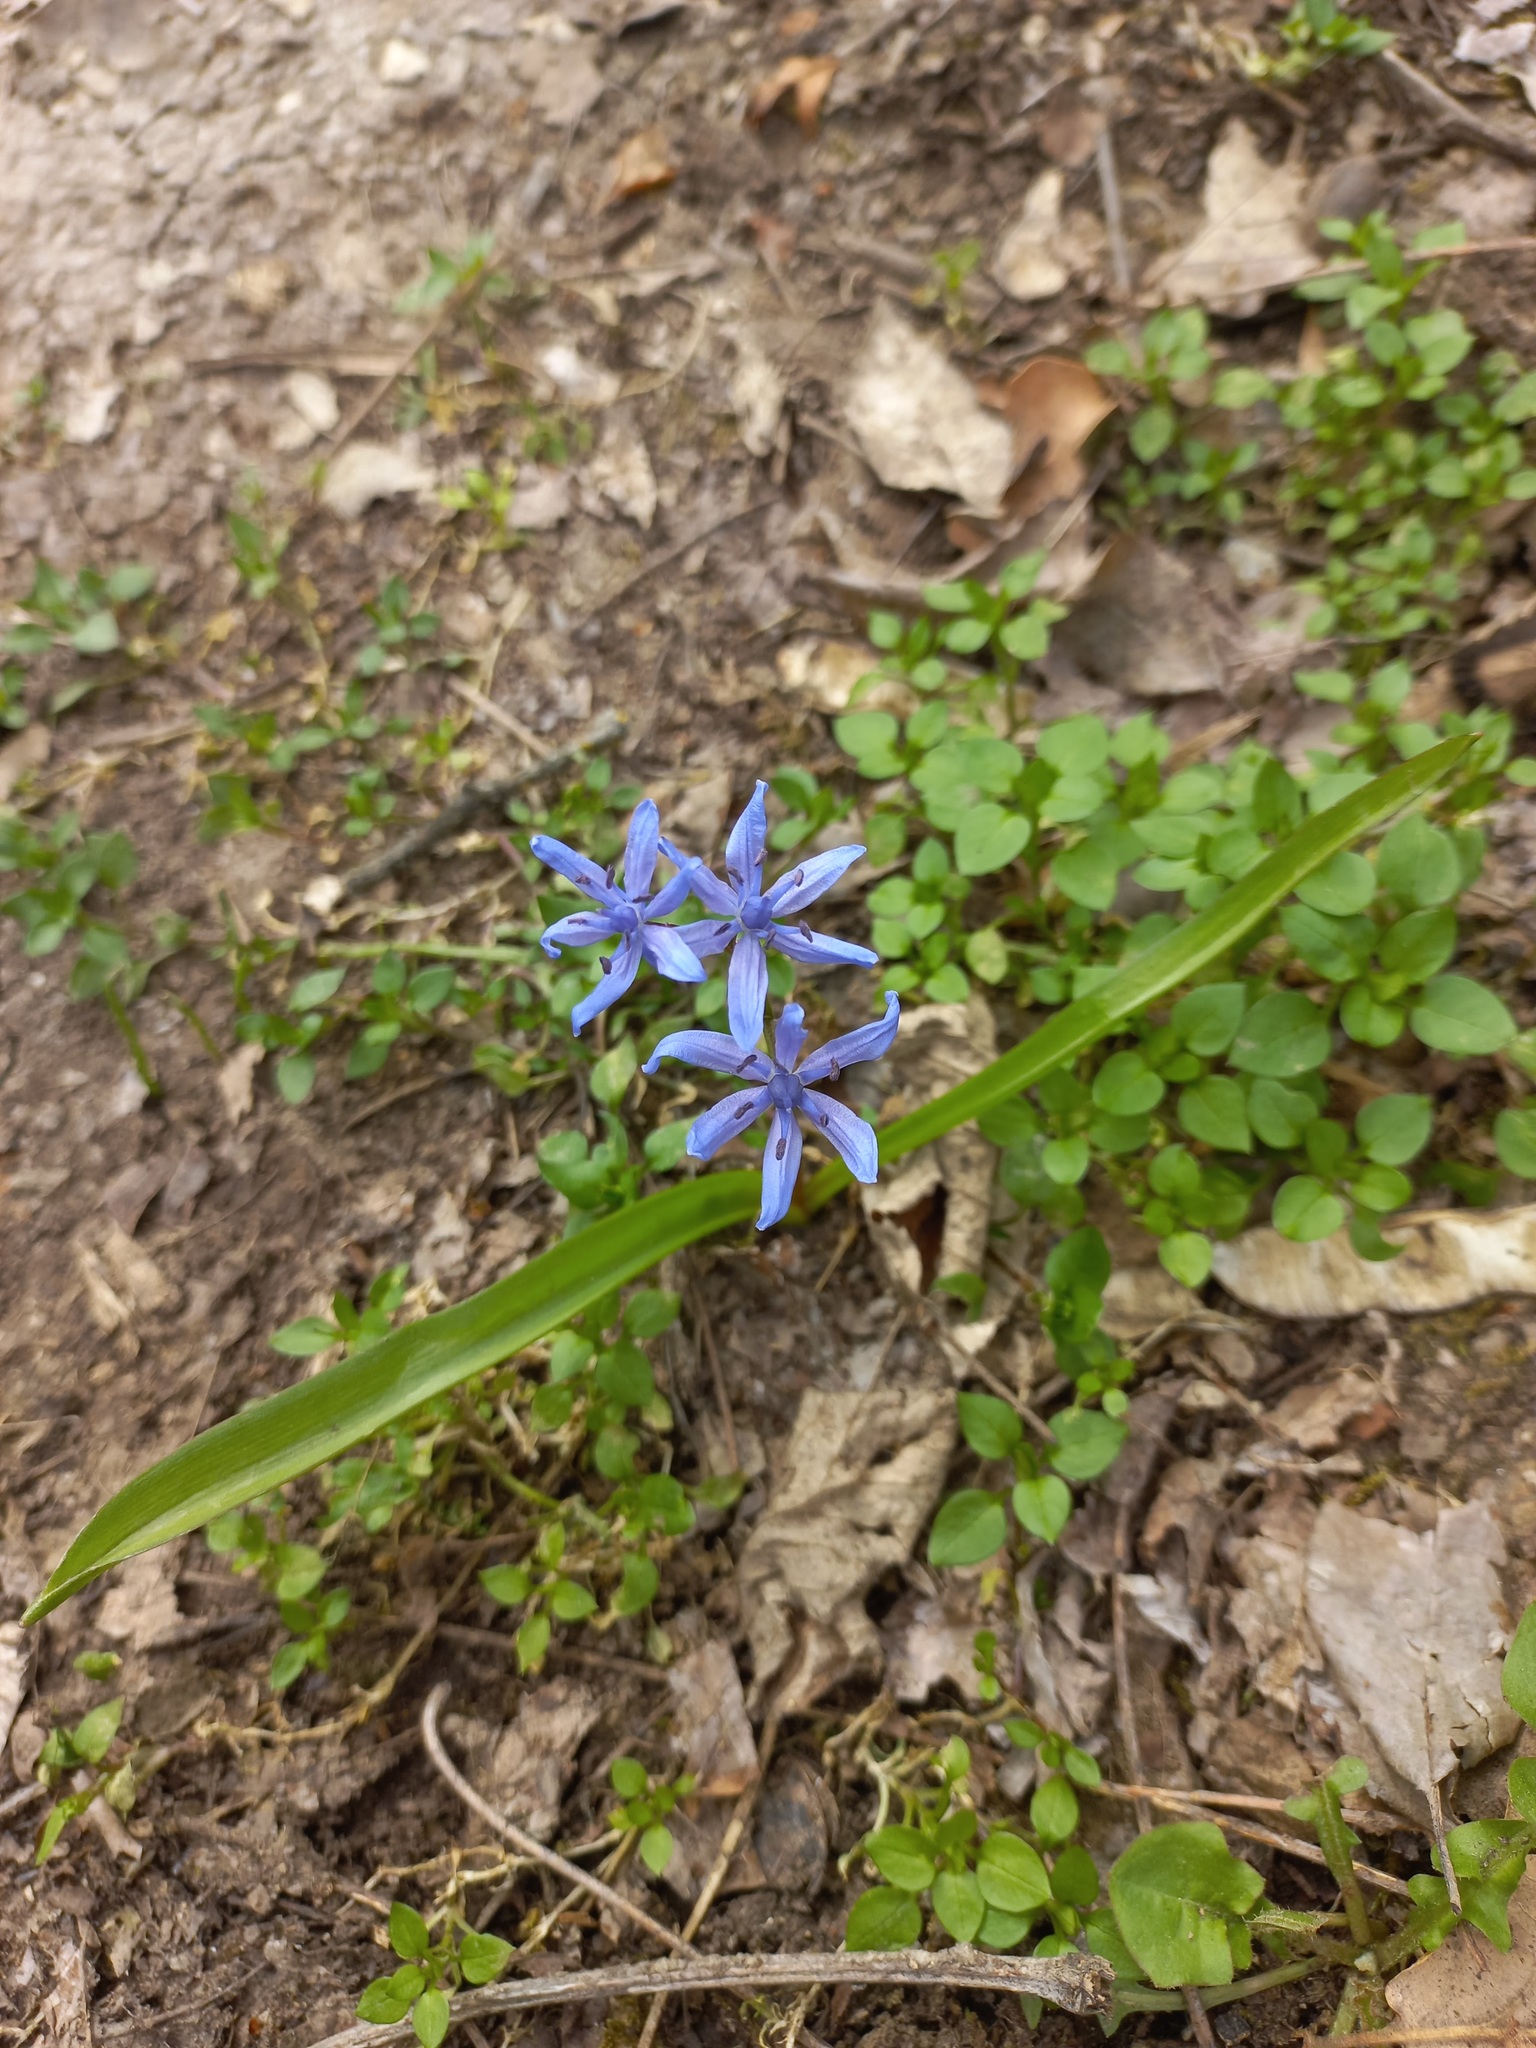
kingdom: Plantae
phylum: Tracheophyta
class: Liliopsida
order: Asparagales
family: Asparagaceae
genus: Scilla
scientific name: Scilla bifolia
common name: Alpine squill
